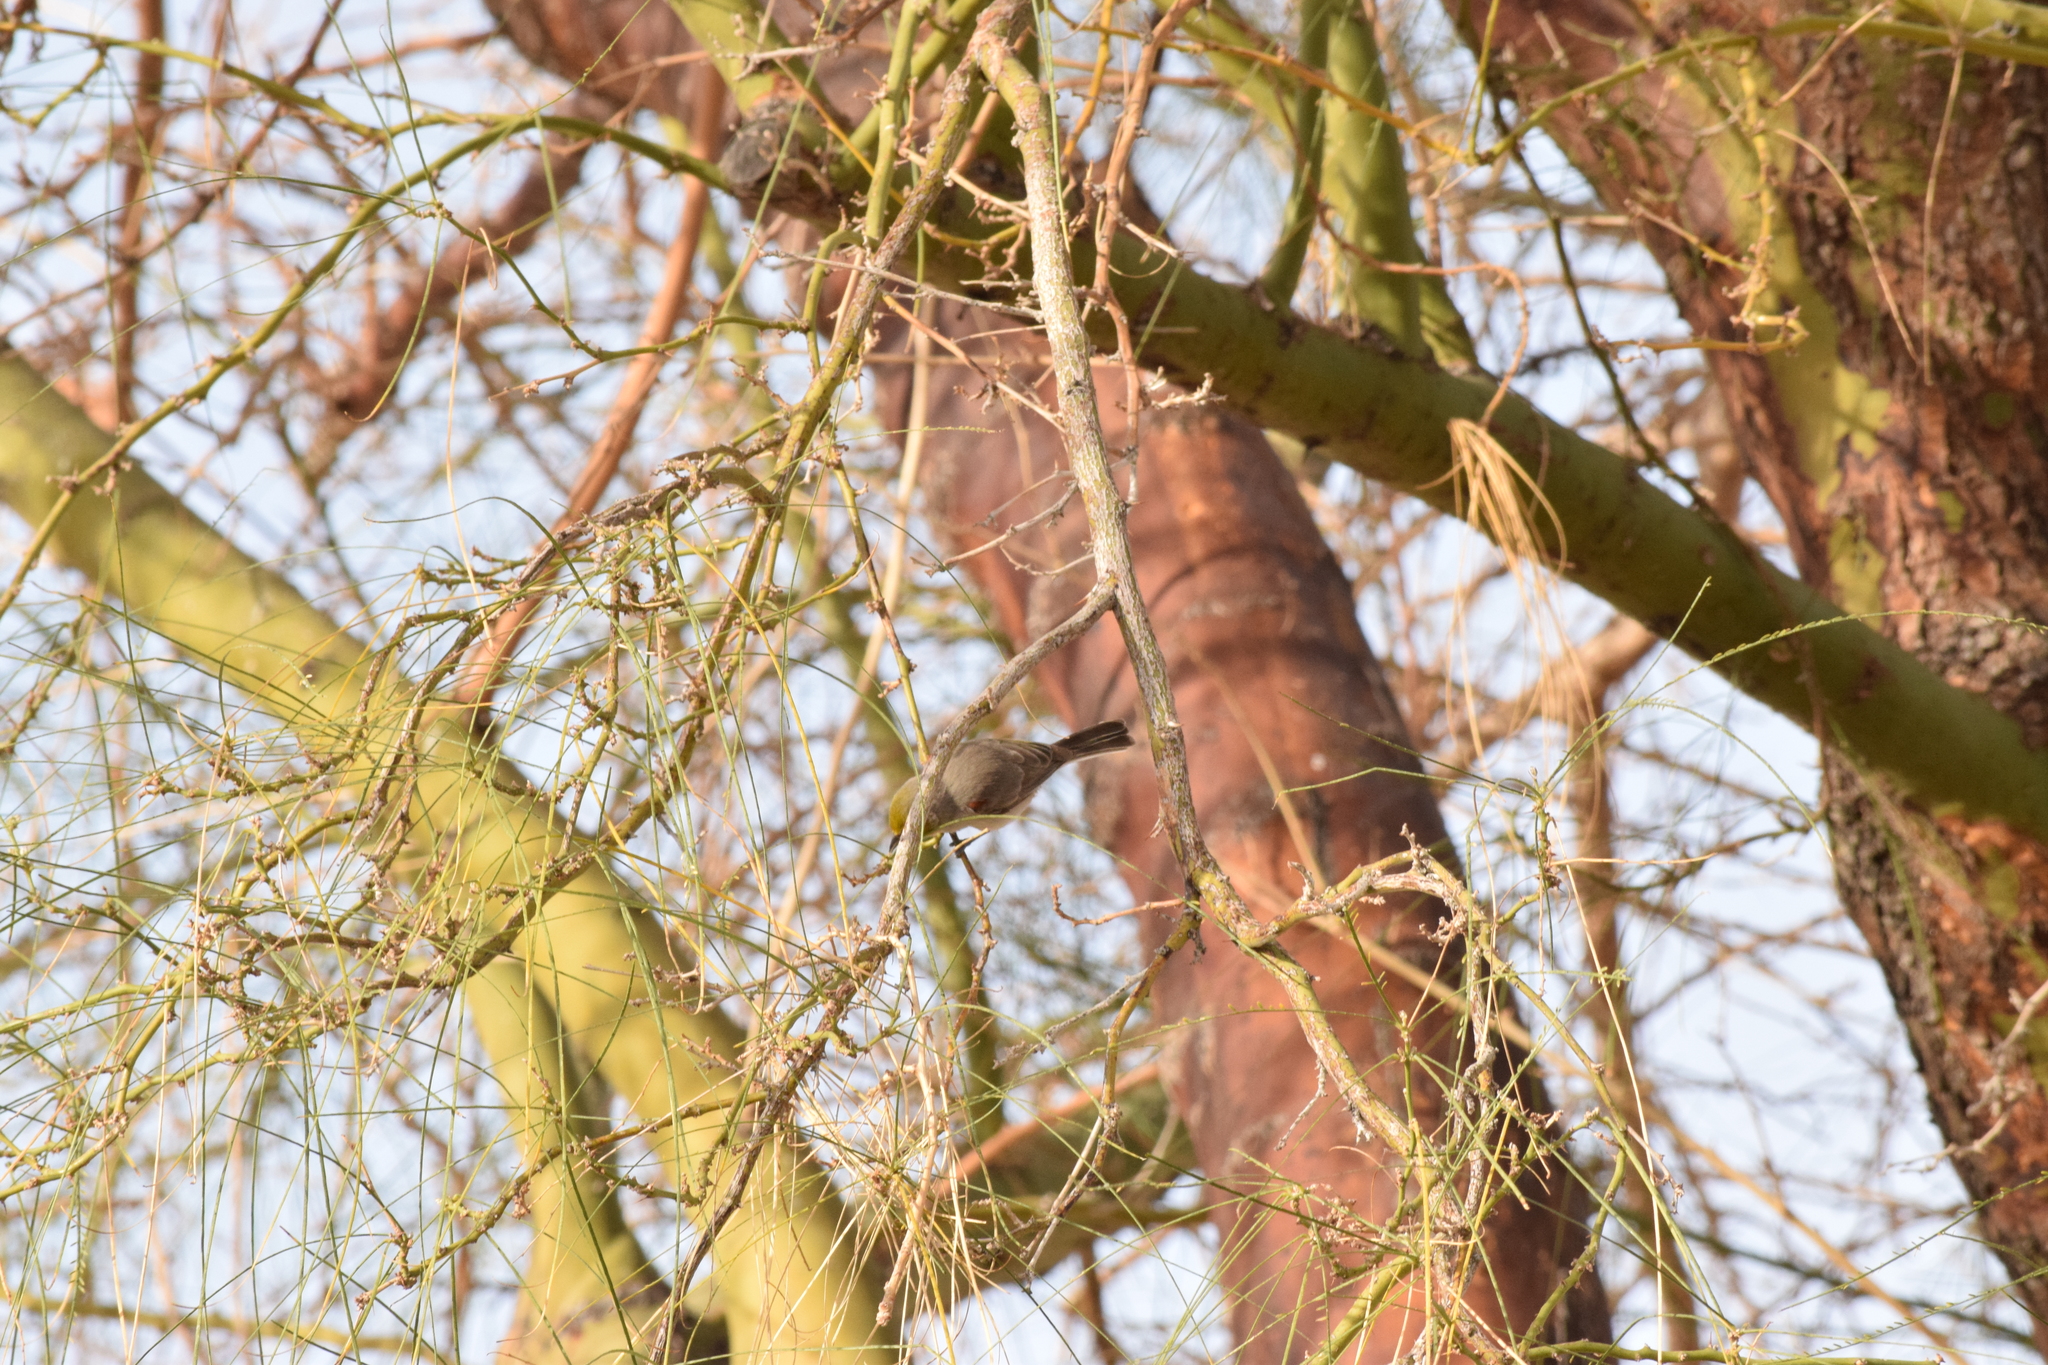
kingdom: Animalia
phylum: Chordata
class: Aves
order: Passeriformes
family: Remizidae
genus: Auriparus
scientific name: Auriparus flaviceps
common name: Verdin
